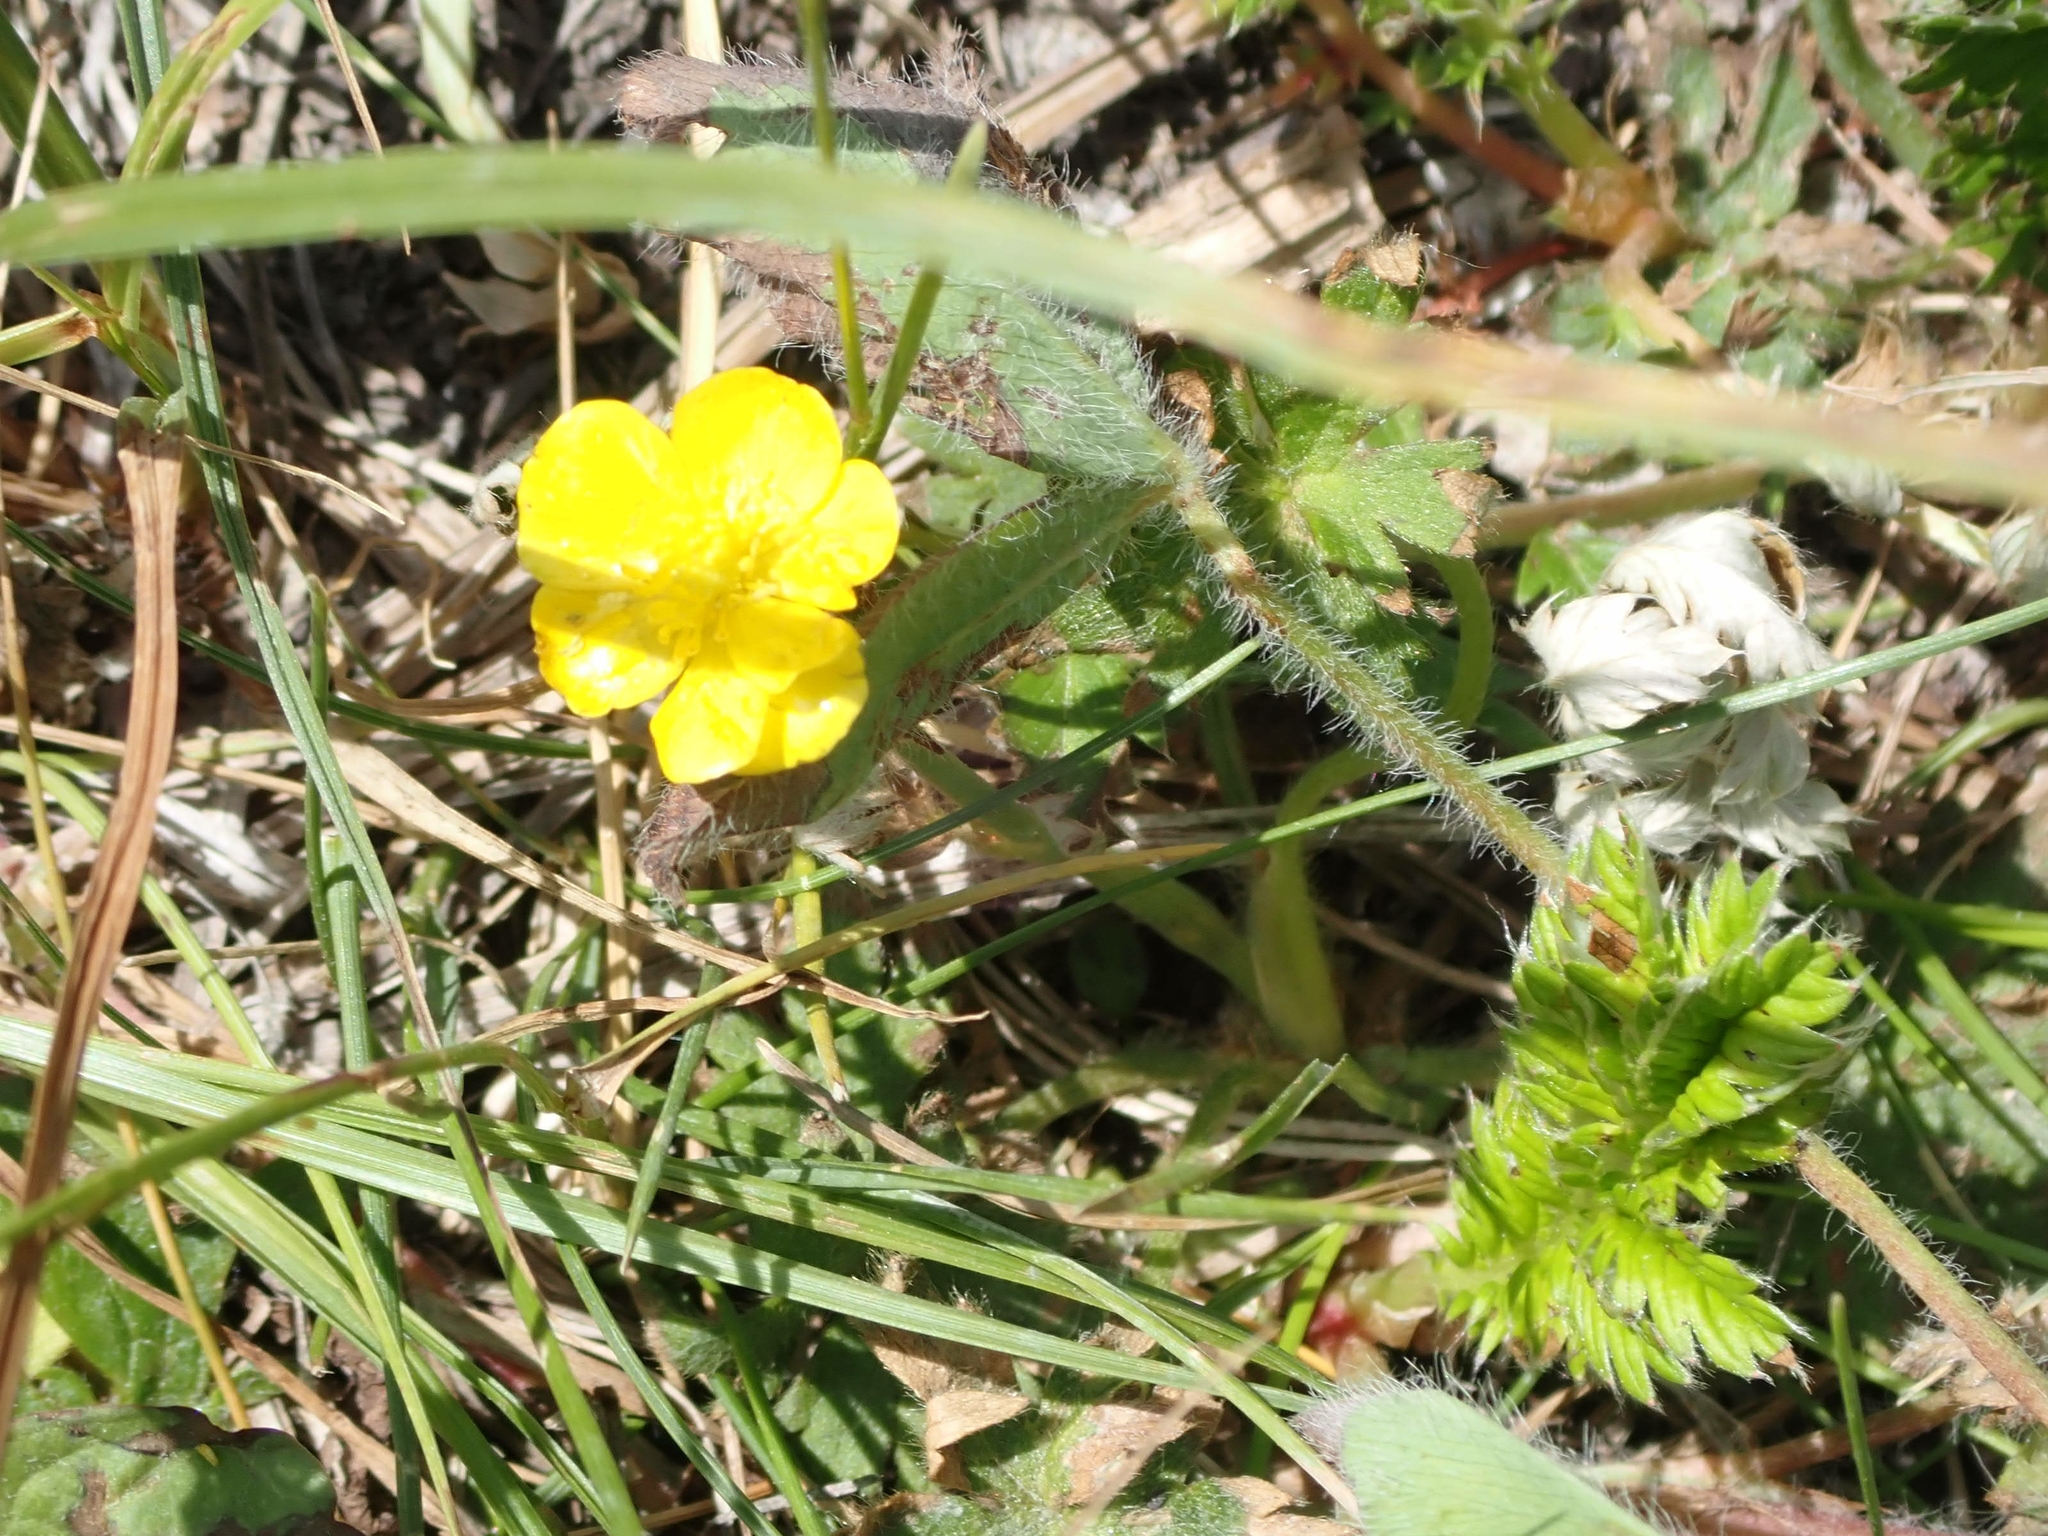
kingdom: Plantae
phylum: Tracheophyta
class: Magnoliopsida
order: Rosales
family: Rosaceae
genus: Argentina
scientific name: Argentina anserina
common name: Common silverweed
